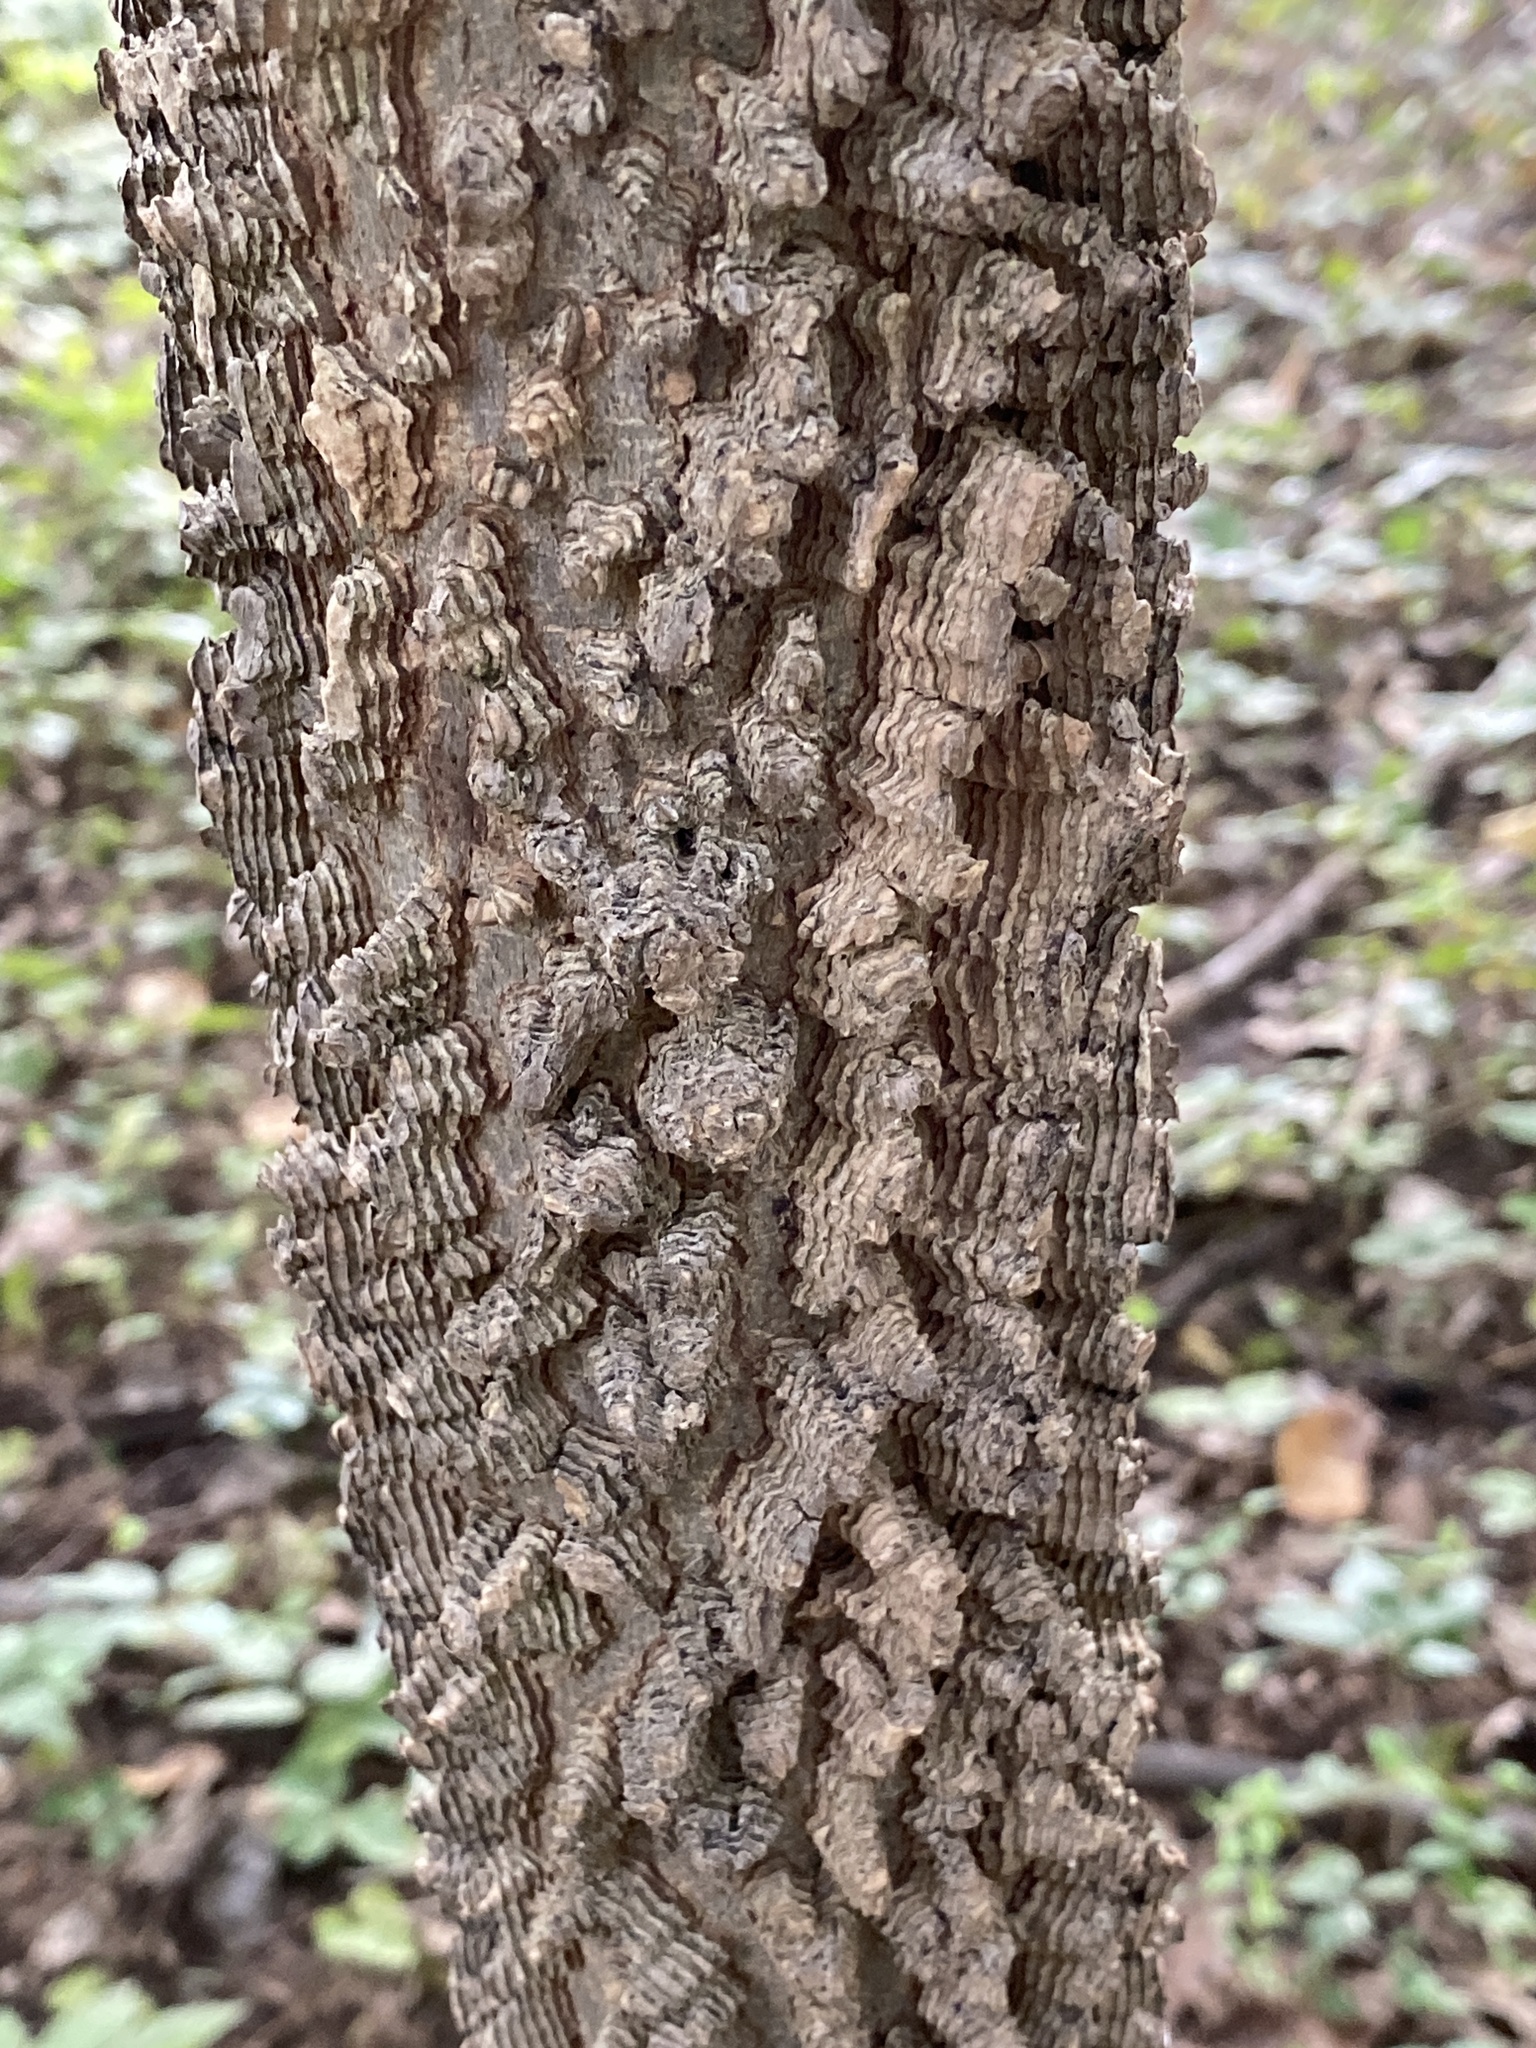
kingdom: Plantae
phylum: Tracheophyta
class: Magnoliopsida
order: Rosales
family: Cannabaceae
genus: Celtis
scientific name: Celtis occidentalis
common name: Common hackberry
